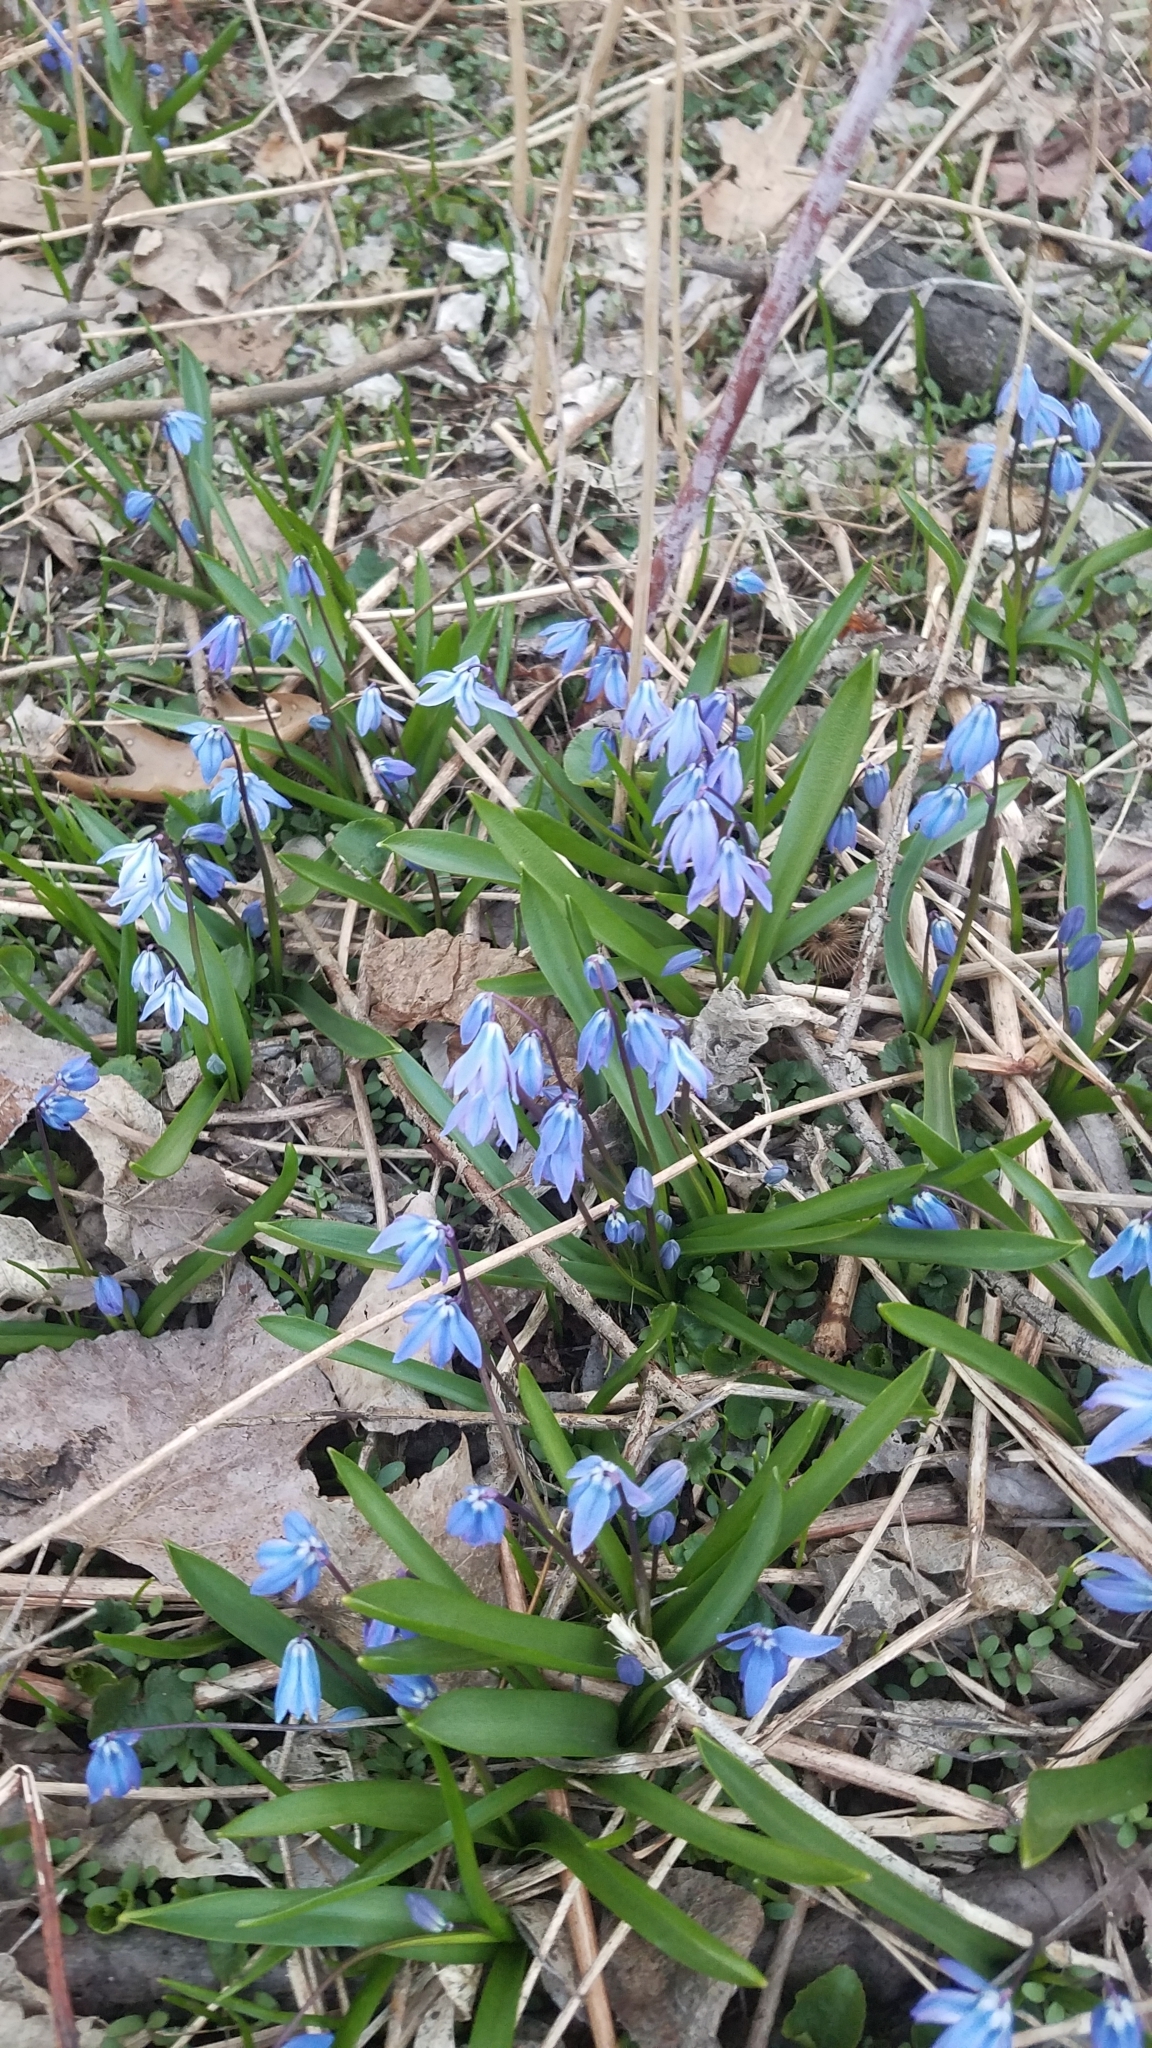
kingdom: Plantae
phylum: Tracheophyta
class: Liliopsida
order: Asparagales
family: Asparagaceae
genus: Scilla
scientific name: Scilla siberica
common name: Siberian squill
